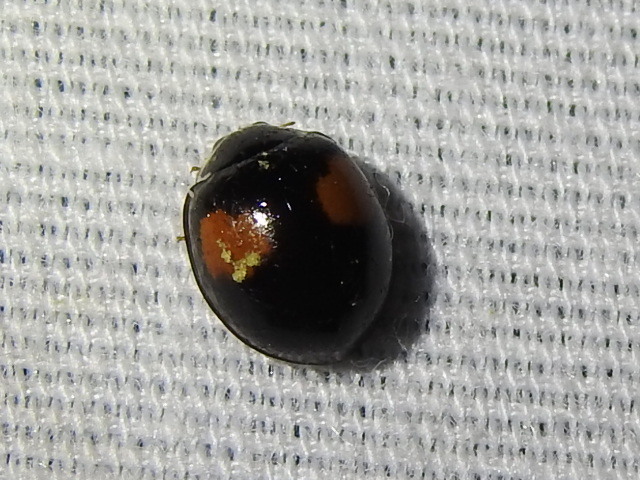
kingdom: Animalia
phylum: Arthropoda
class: Insecta
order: Coleoptera
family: Coccinellidae
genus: Olla
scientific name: Olla v-nigrum
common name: Ashy gray lady beetle
